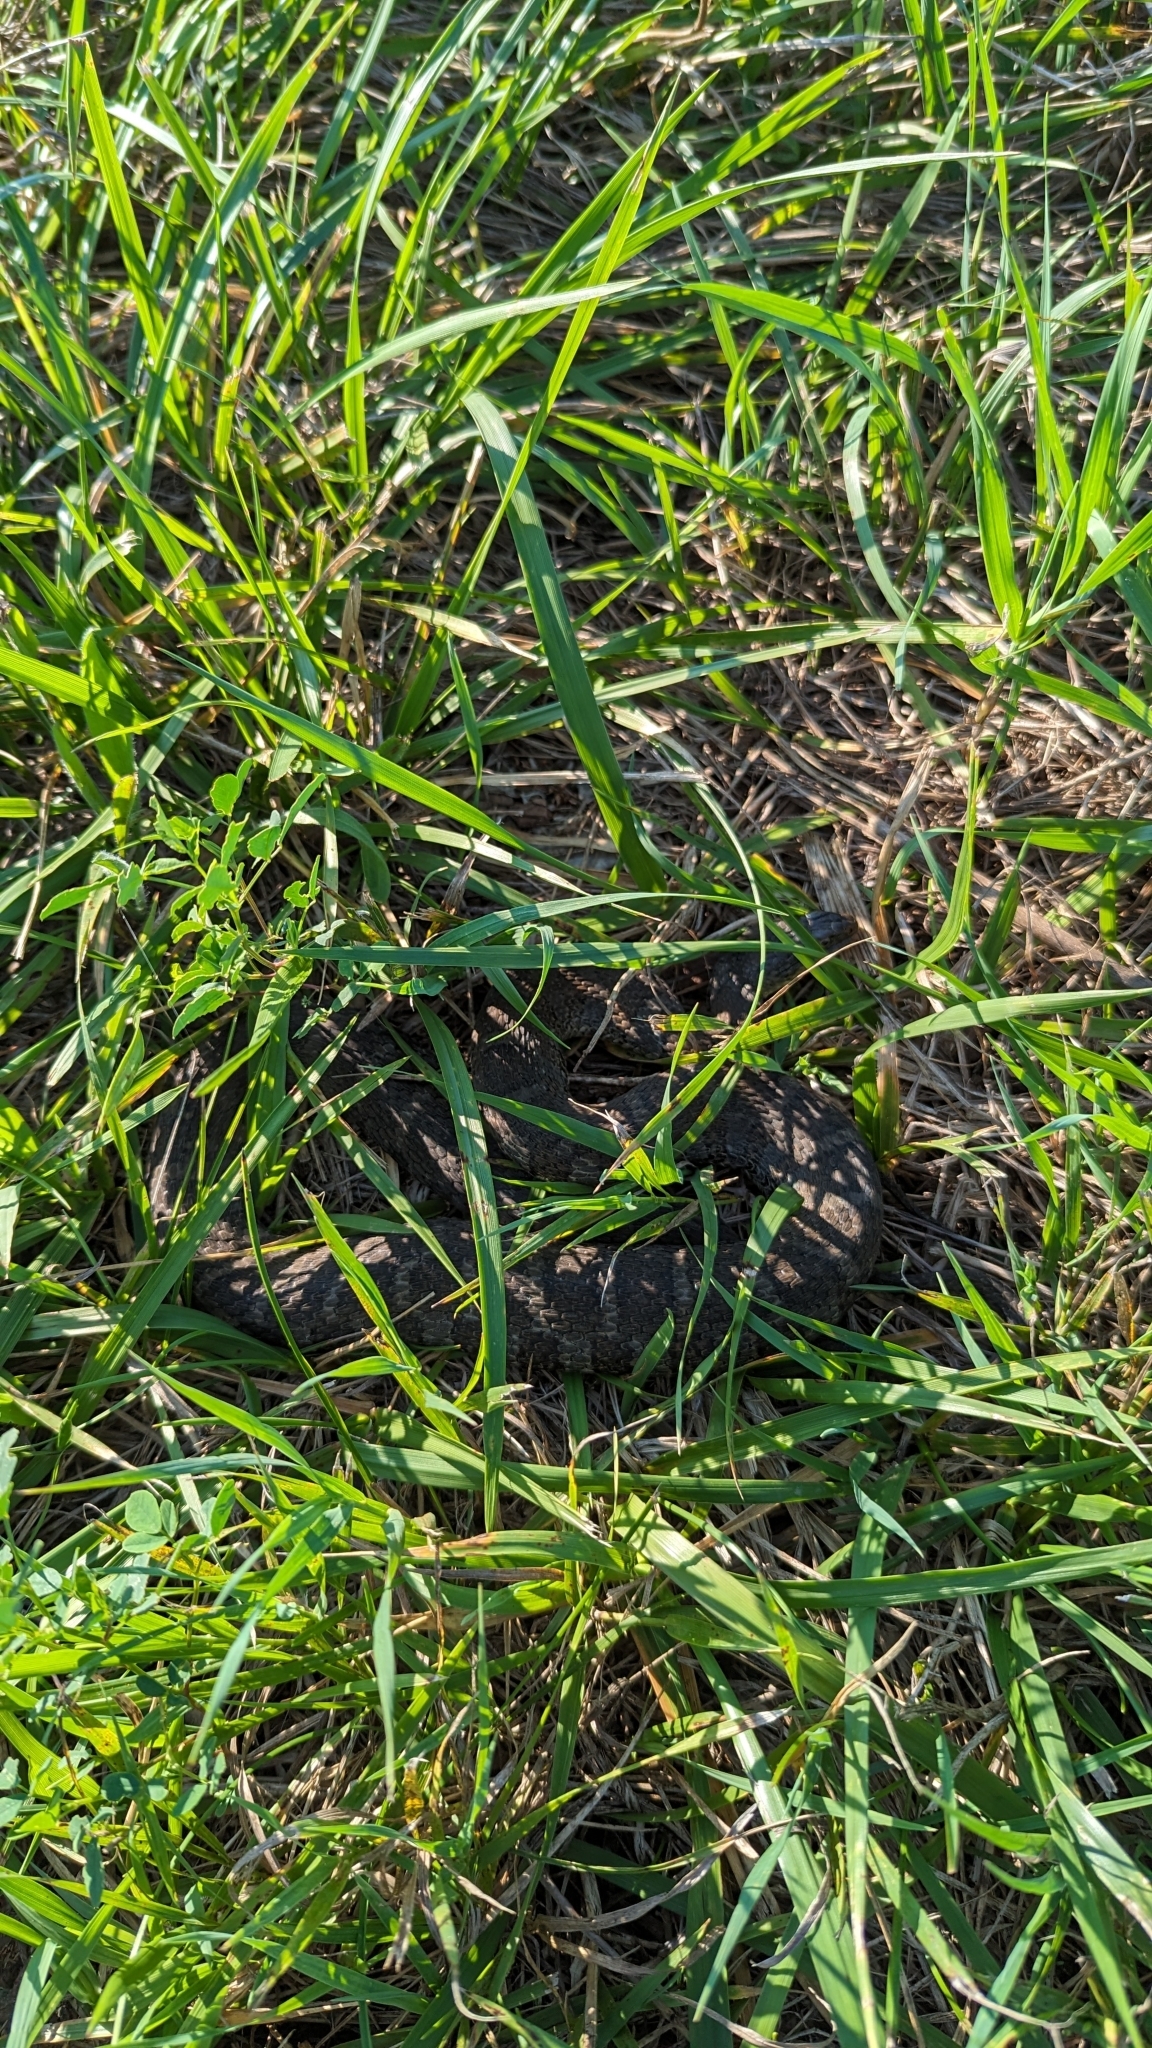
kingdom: Animalia
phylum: Chordata
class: Squamata
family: Colubridae
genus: Nerodia
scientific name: Nerodia sipedon
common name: Northern water snake
